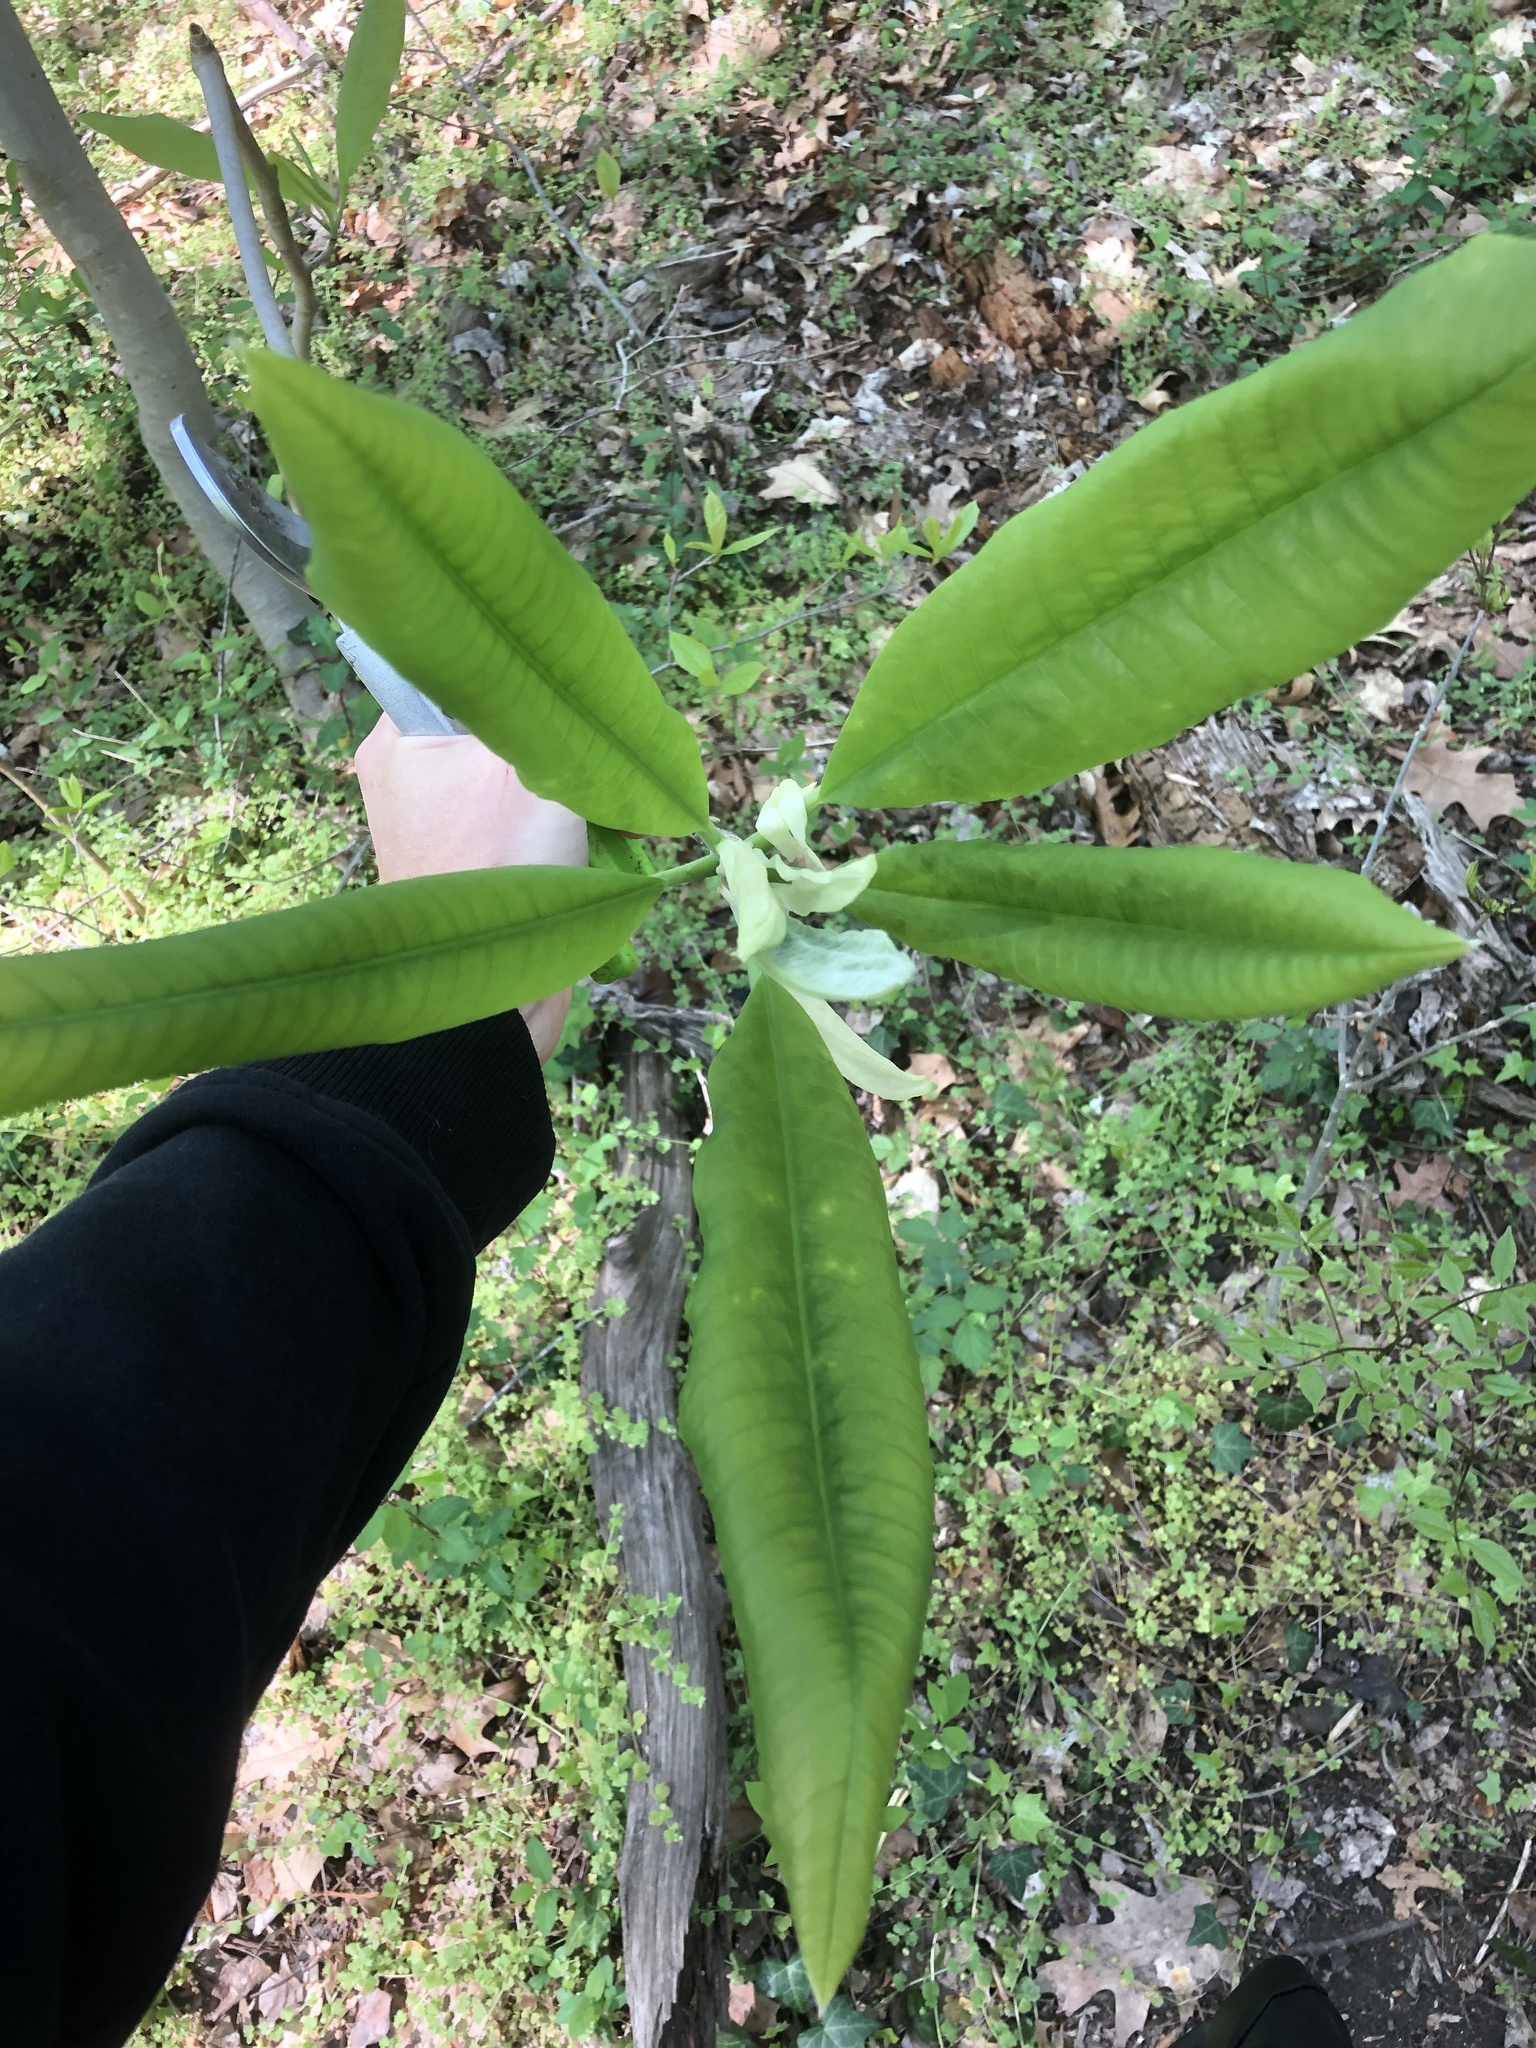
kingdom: Plantae
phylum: Tracheophyta
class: Magnoliopsida
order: Magnoliales
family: Magnoliaceae
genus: Magnolia
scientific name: Magnolia tripetala
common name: Umbrella magnolia
